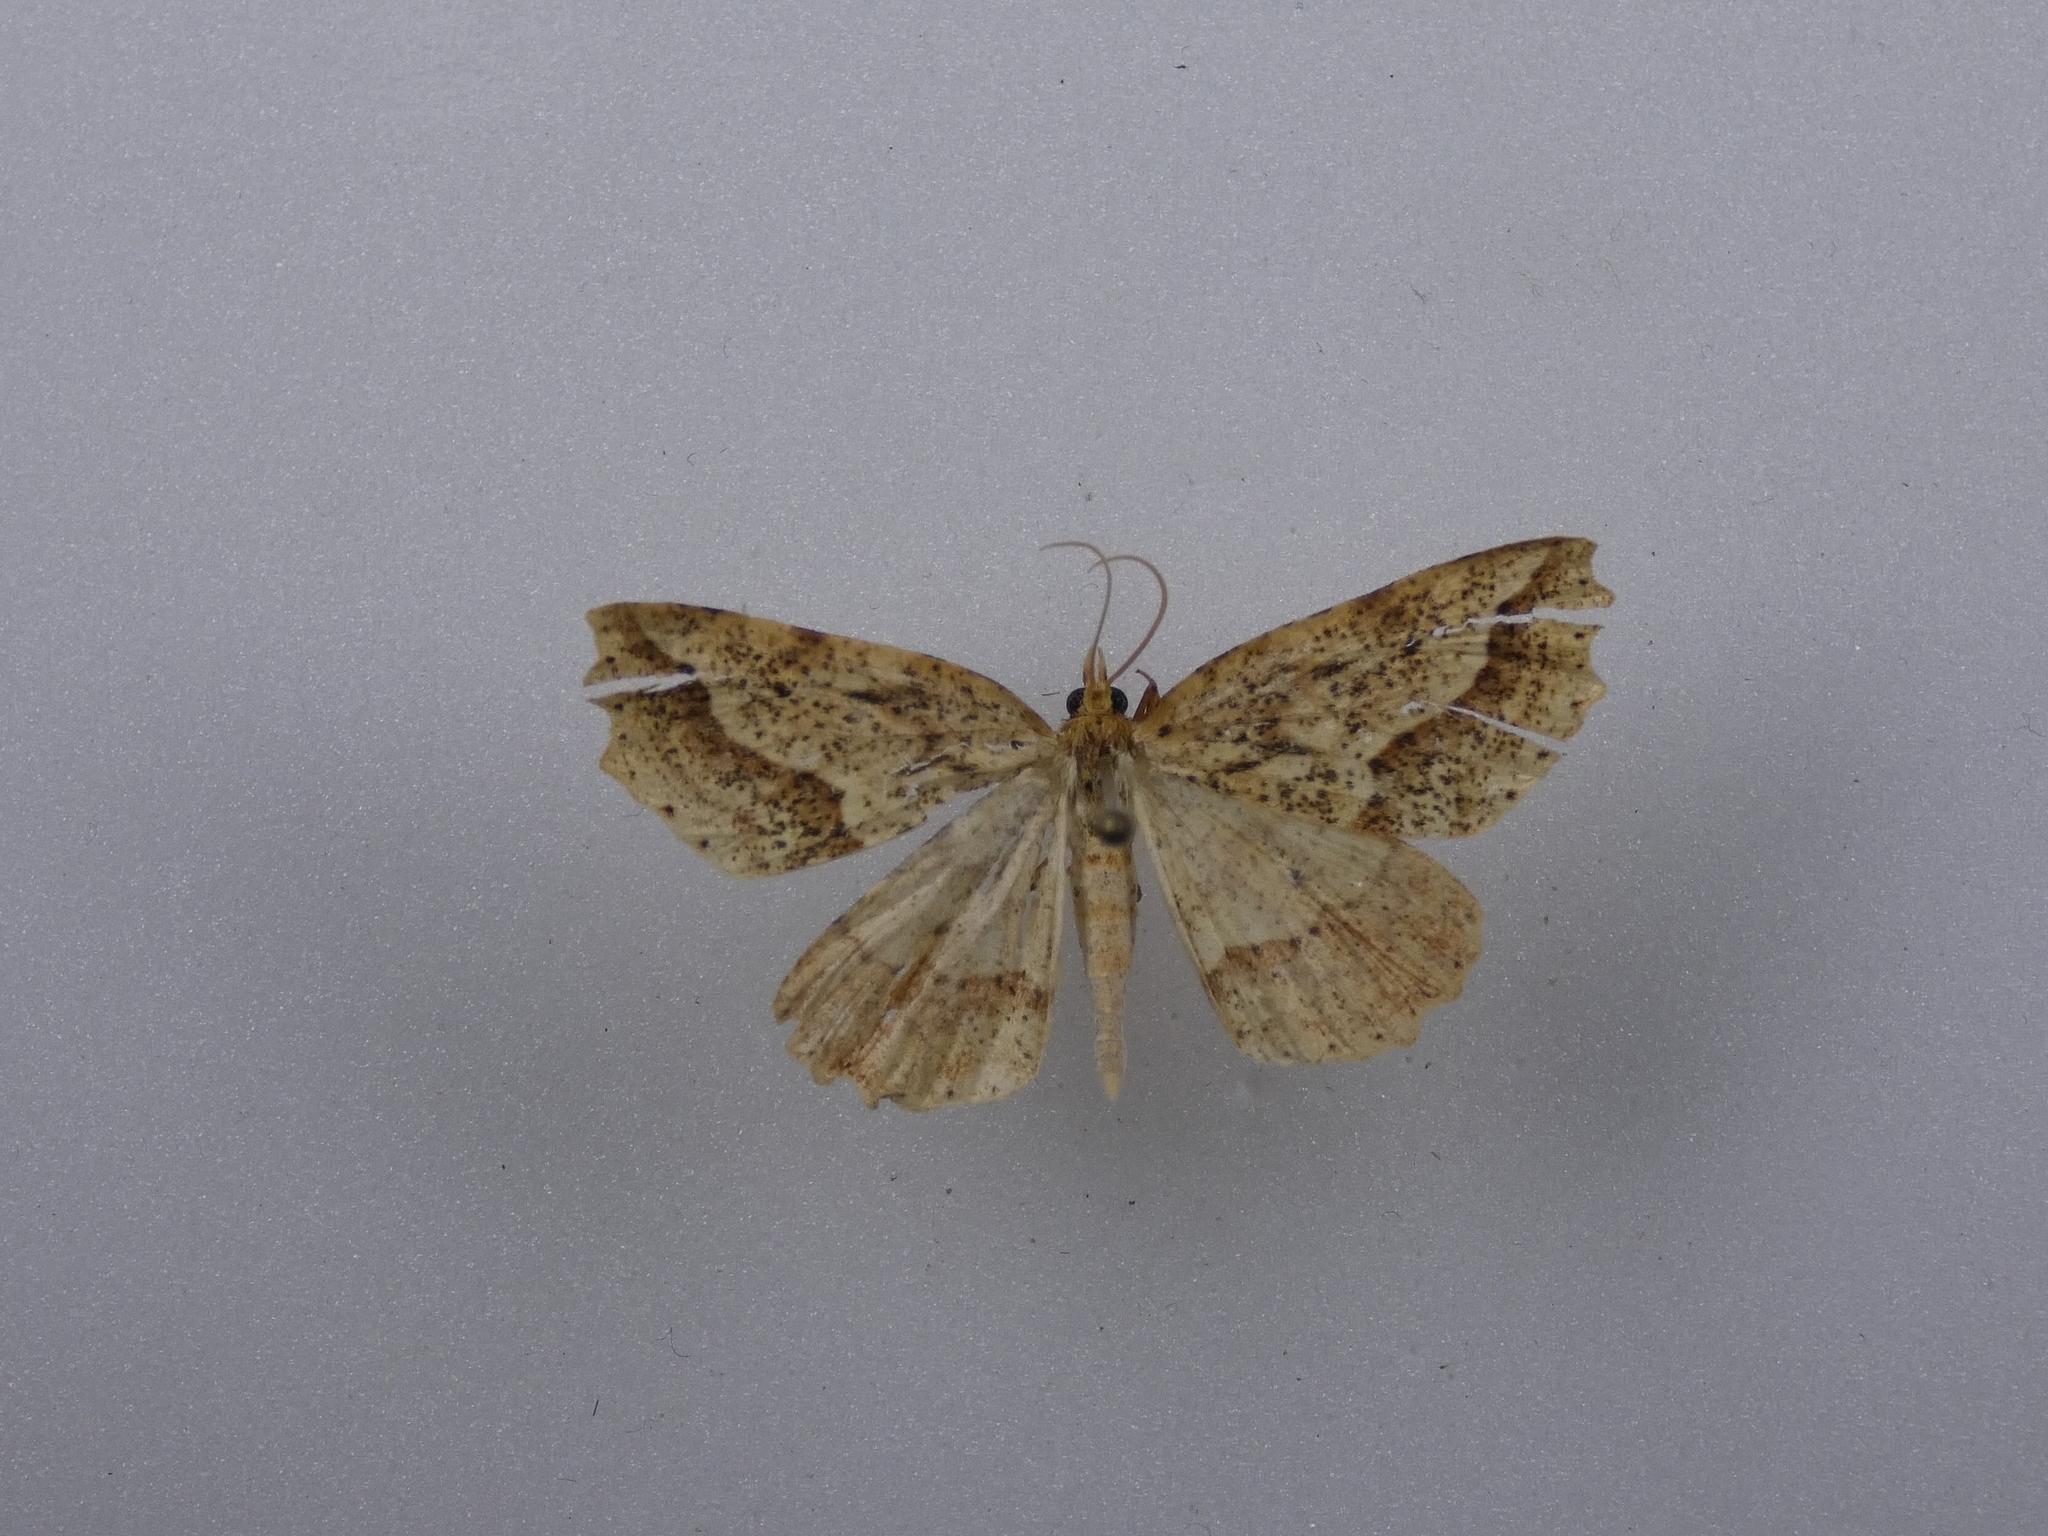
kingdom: Animalia
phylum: Arthropoda
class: Insecta
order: Lepidoptera
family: Geometridae
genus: Ischalis
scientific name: Ischalis variabilis
